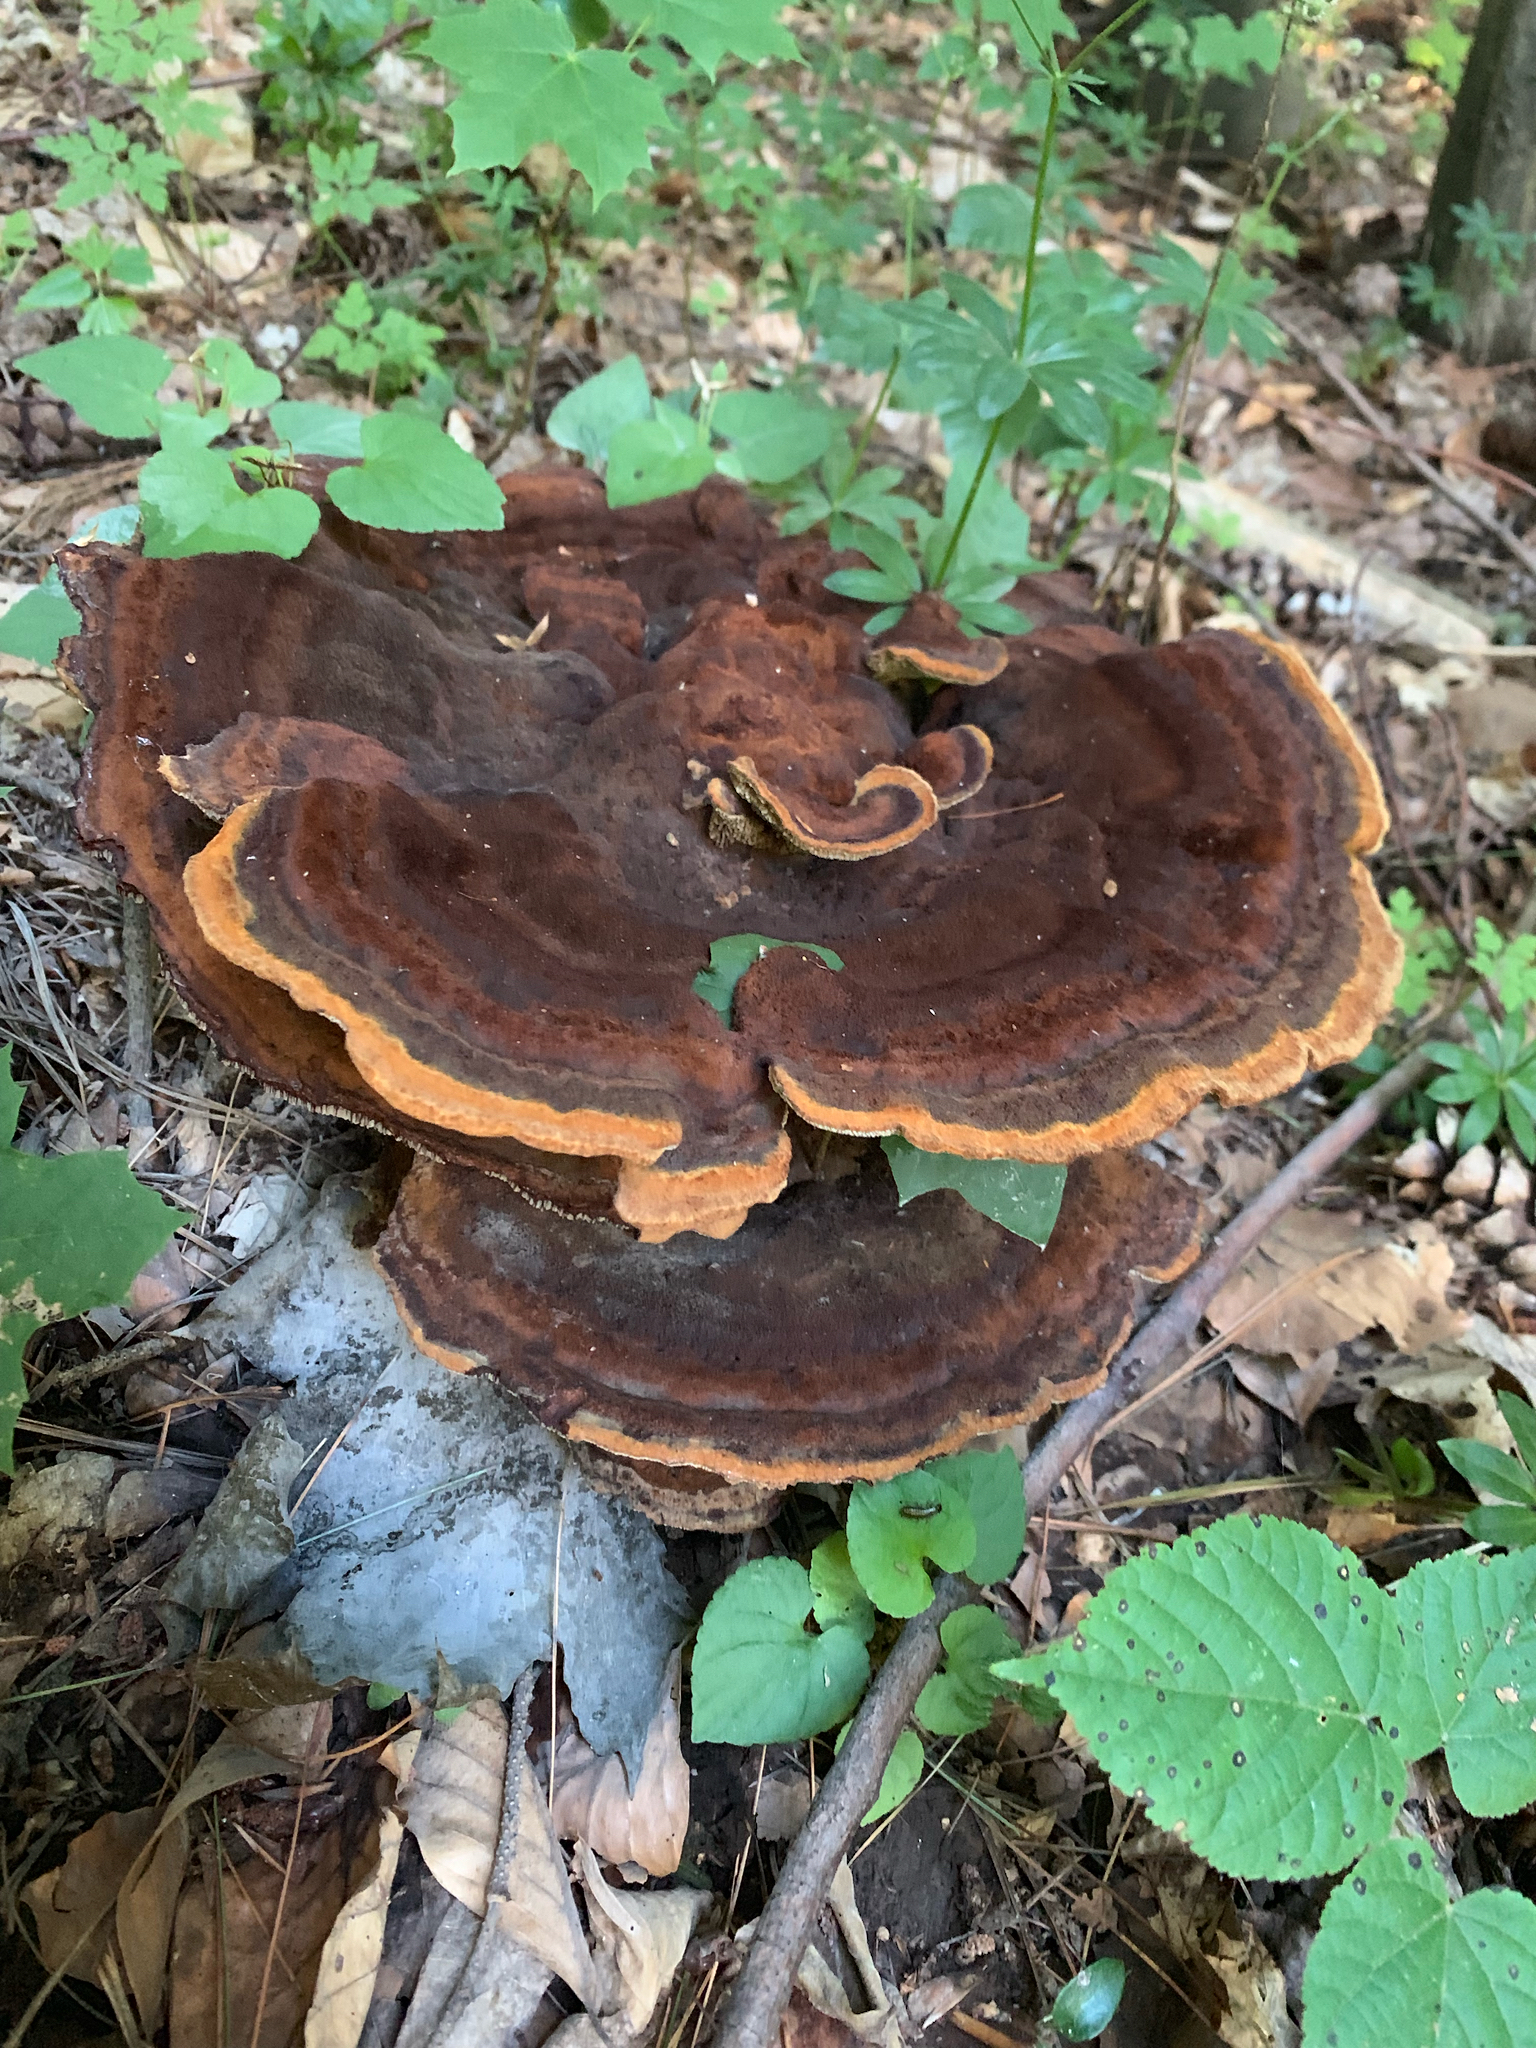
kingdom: Fungi
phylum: Basidiomycota
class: Agaricomycetes
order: Polyporales
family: Laetiporaceae
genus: Phaeolus
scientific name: Phaeolus schweinitzii
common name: Dyer's mazegill
